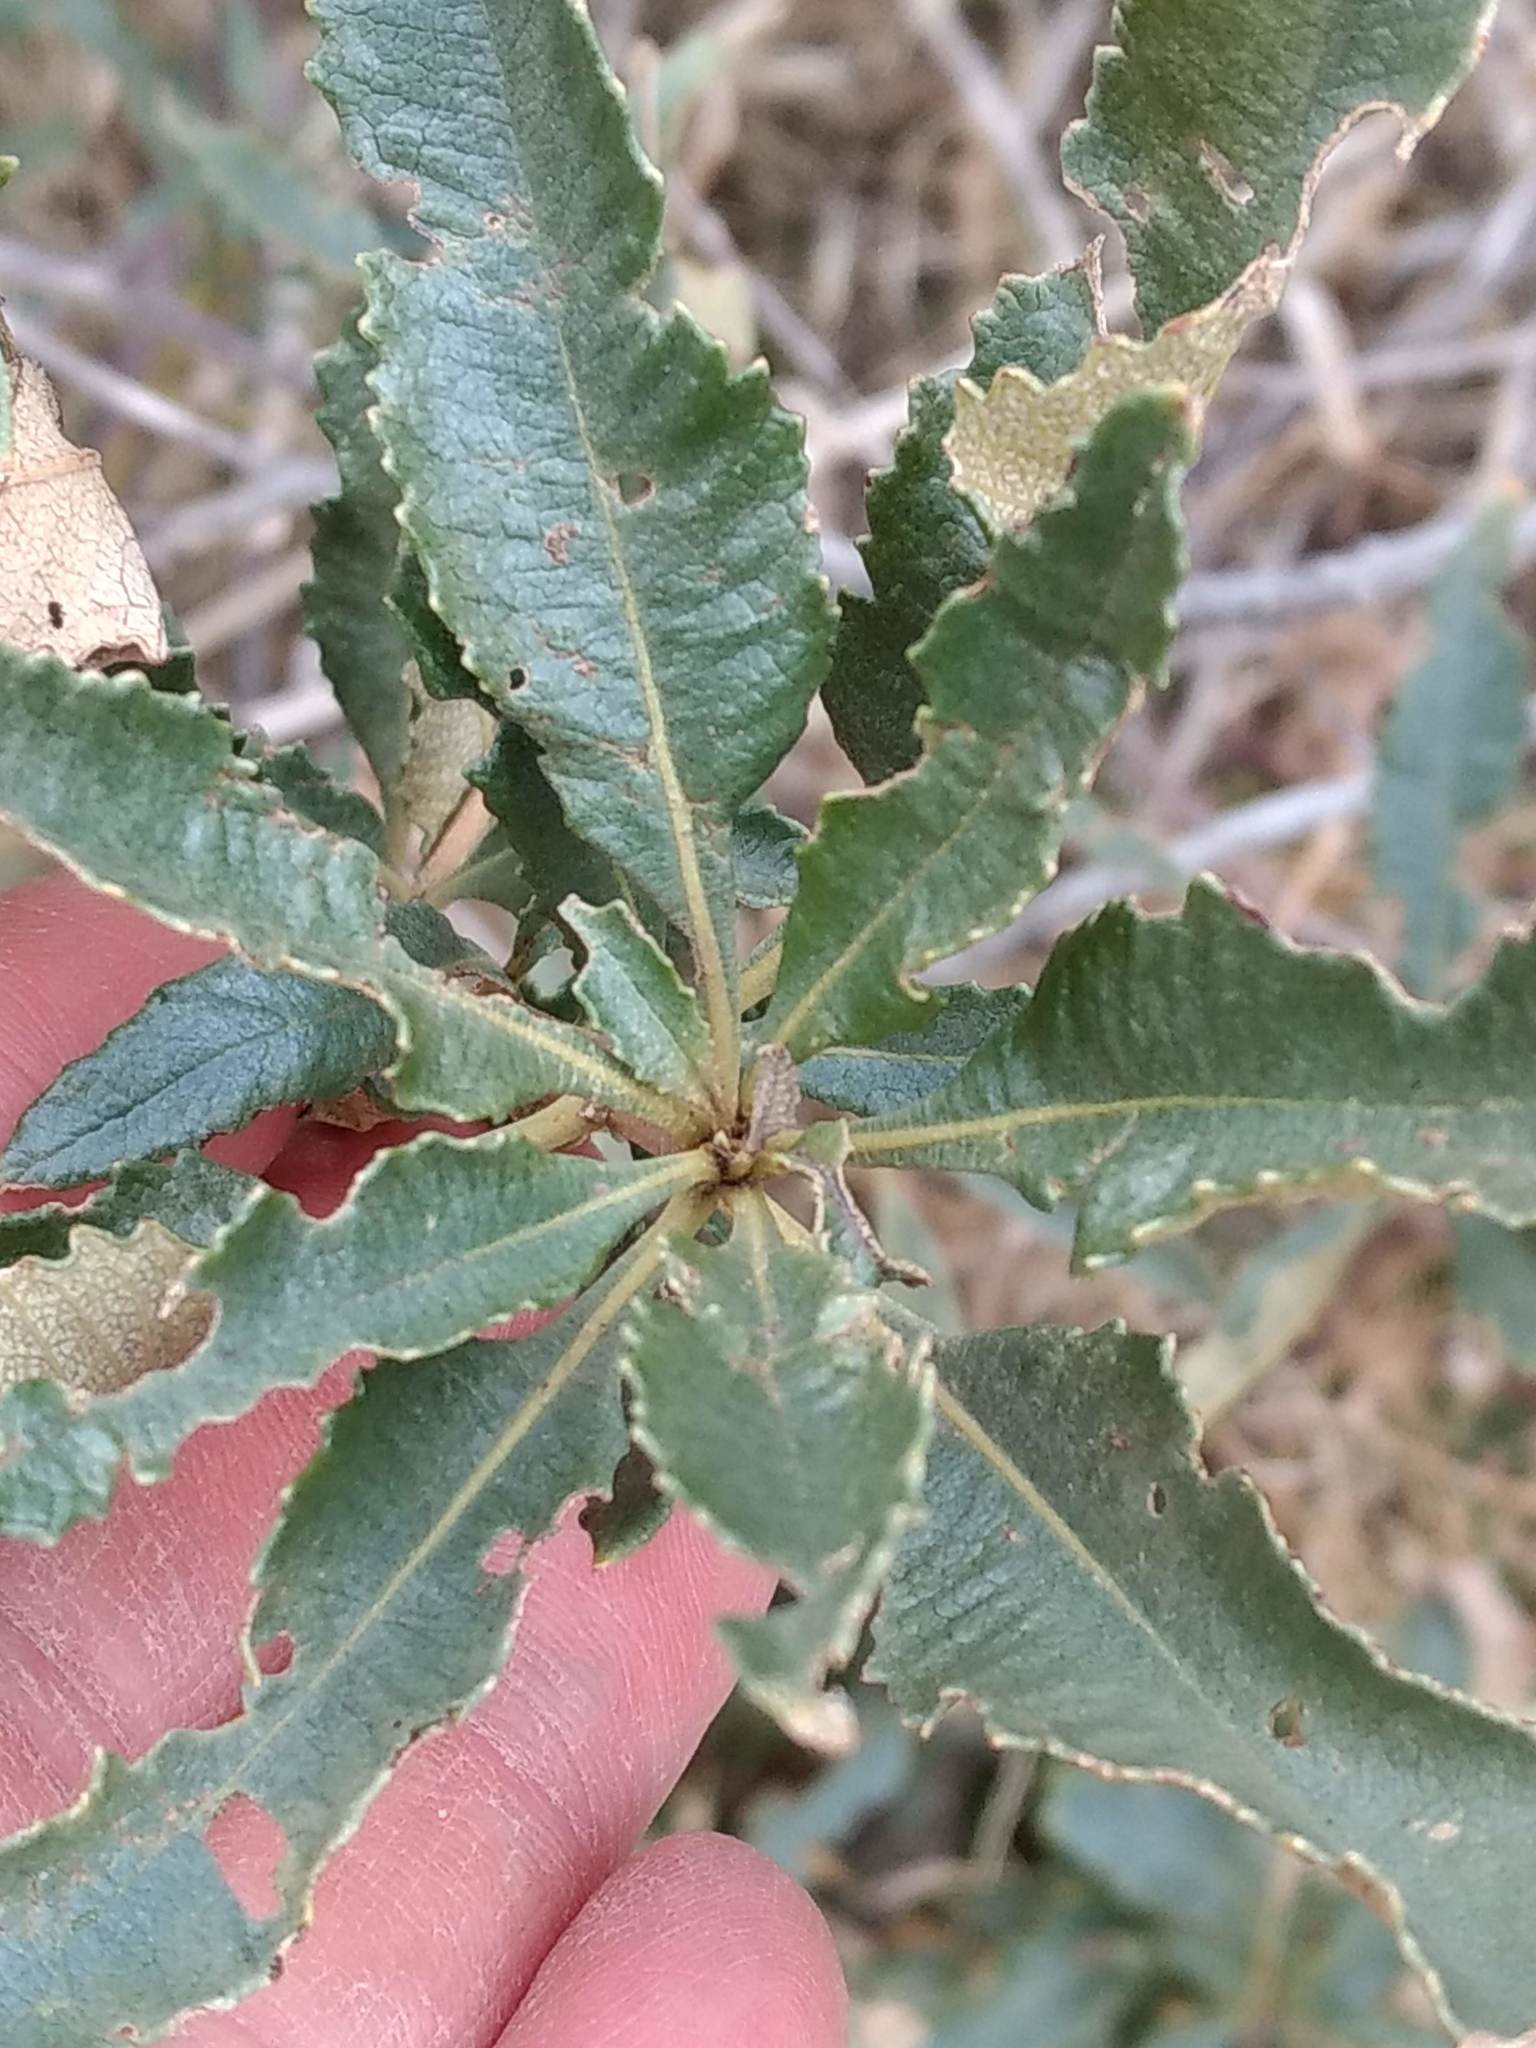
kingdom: Plantae
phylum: Tracheophyta
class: Magnoliopsida
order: Boraginales
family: Namaceae
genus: Eriodictyon
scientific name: Eriodictyon trichocalyx
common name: Hairy yerba-santa
